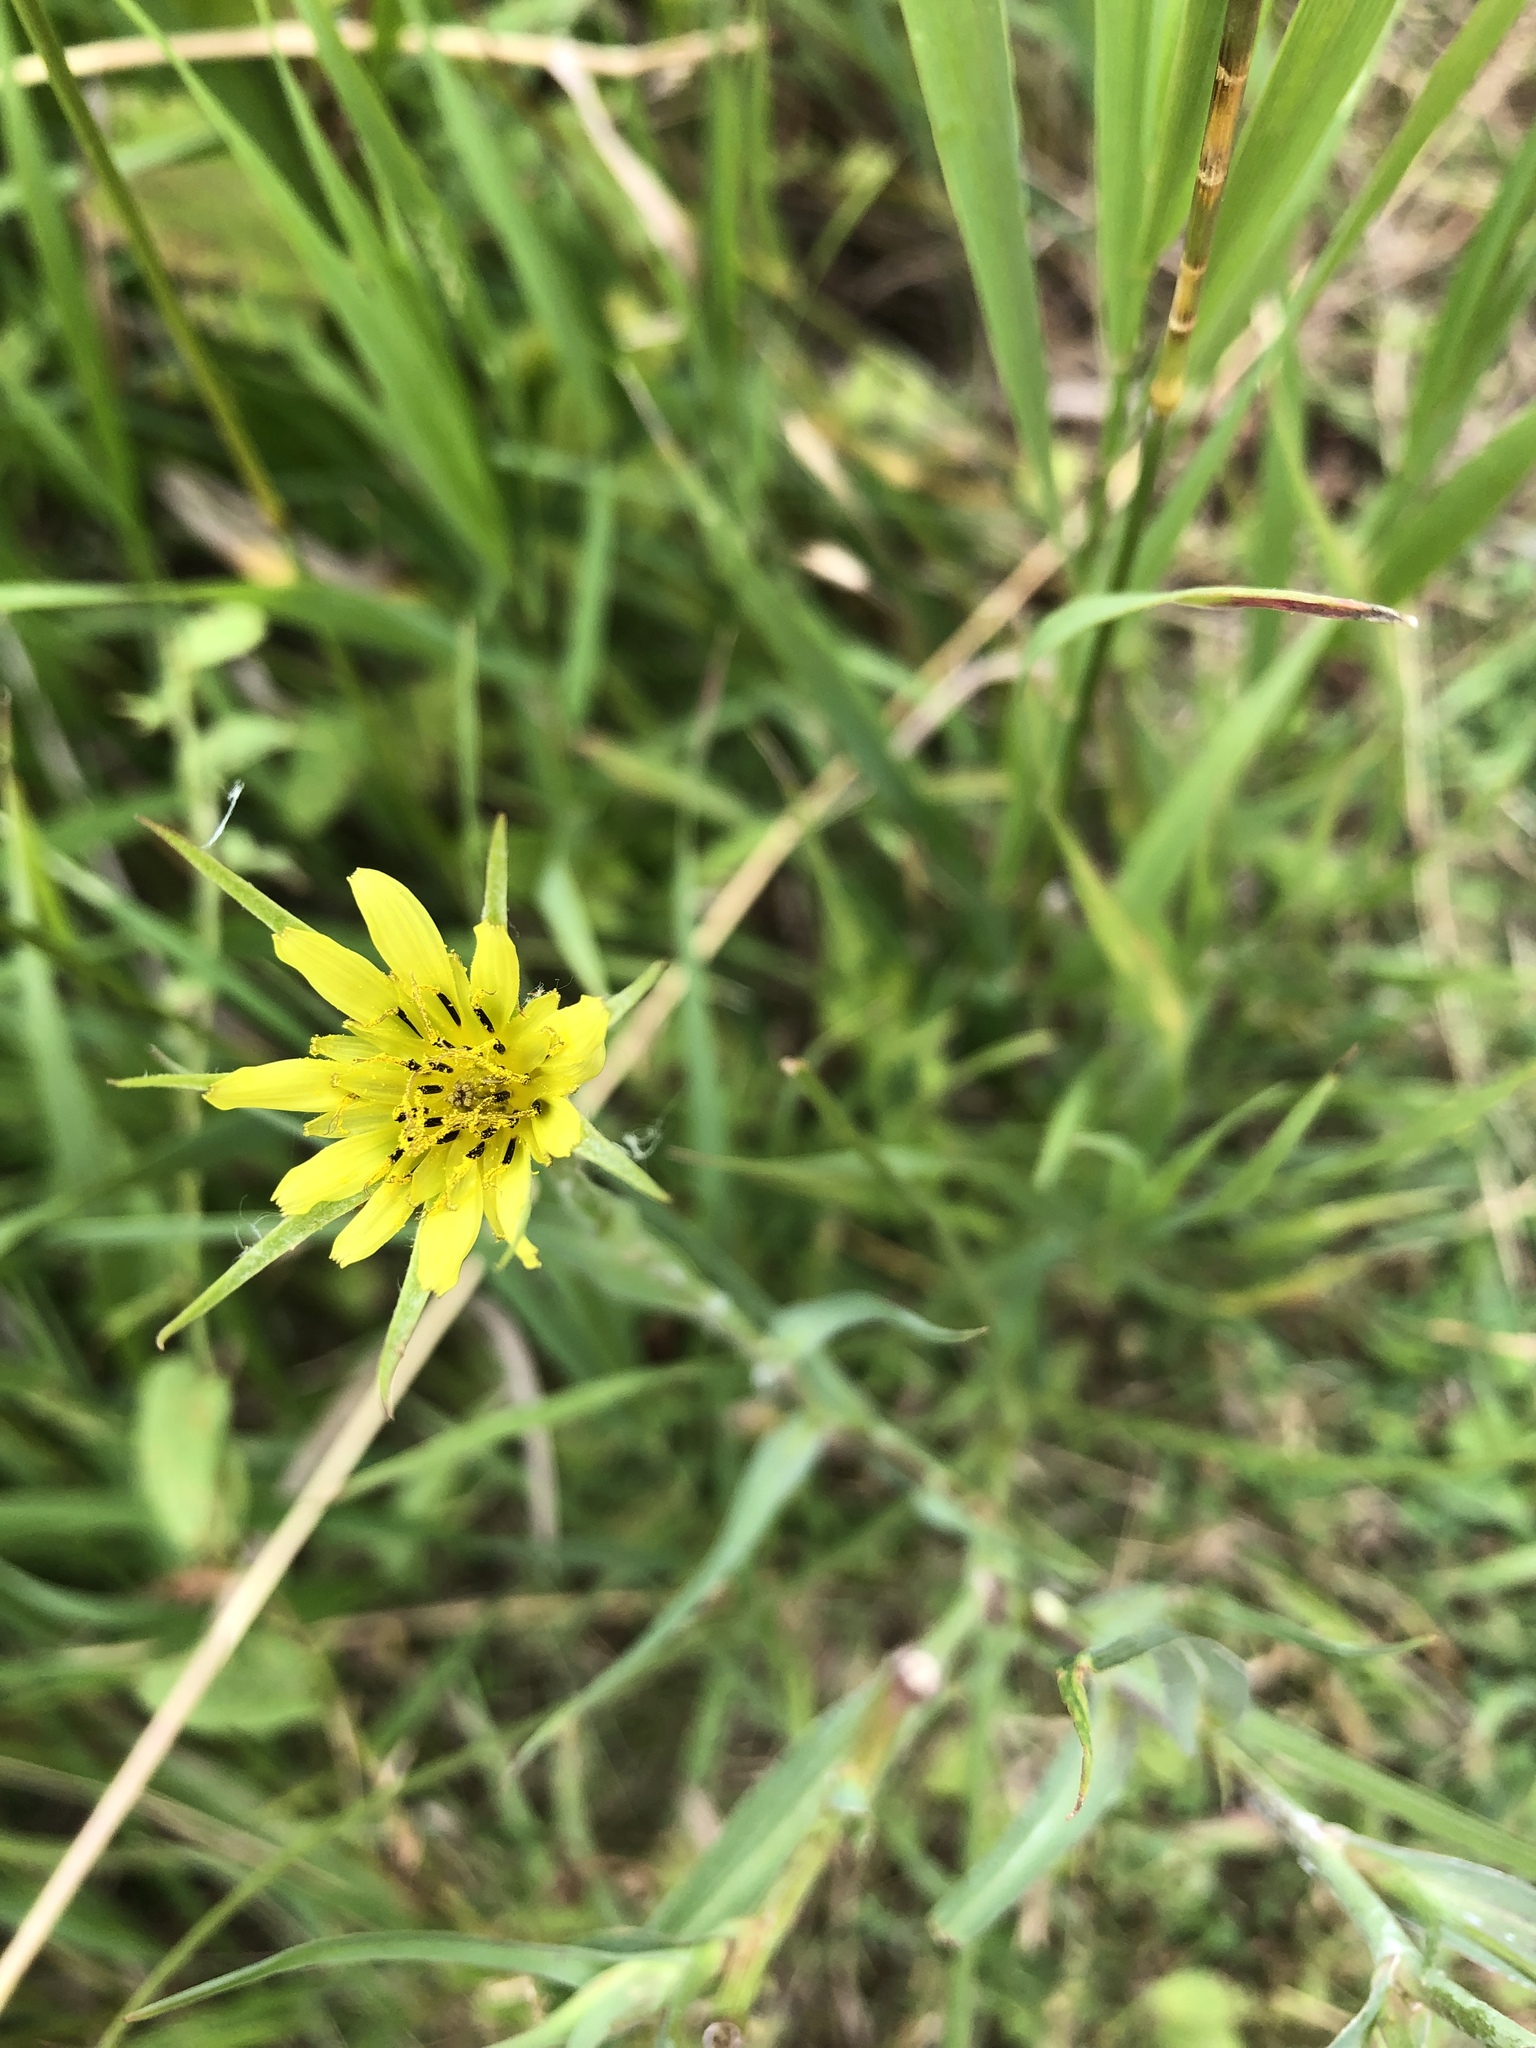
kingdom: Plantae
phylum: Tracheophyta
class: Magnoliopsida
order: Asterales
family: Asteraceae
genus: Tragopogon
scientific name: Tragopogon dubius
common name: Yellow salsify
